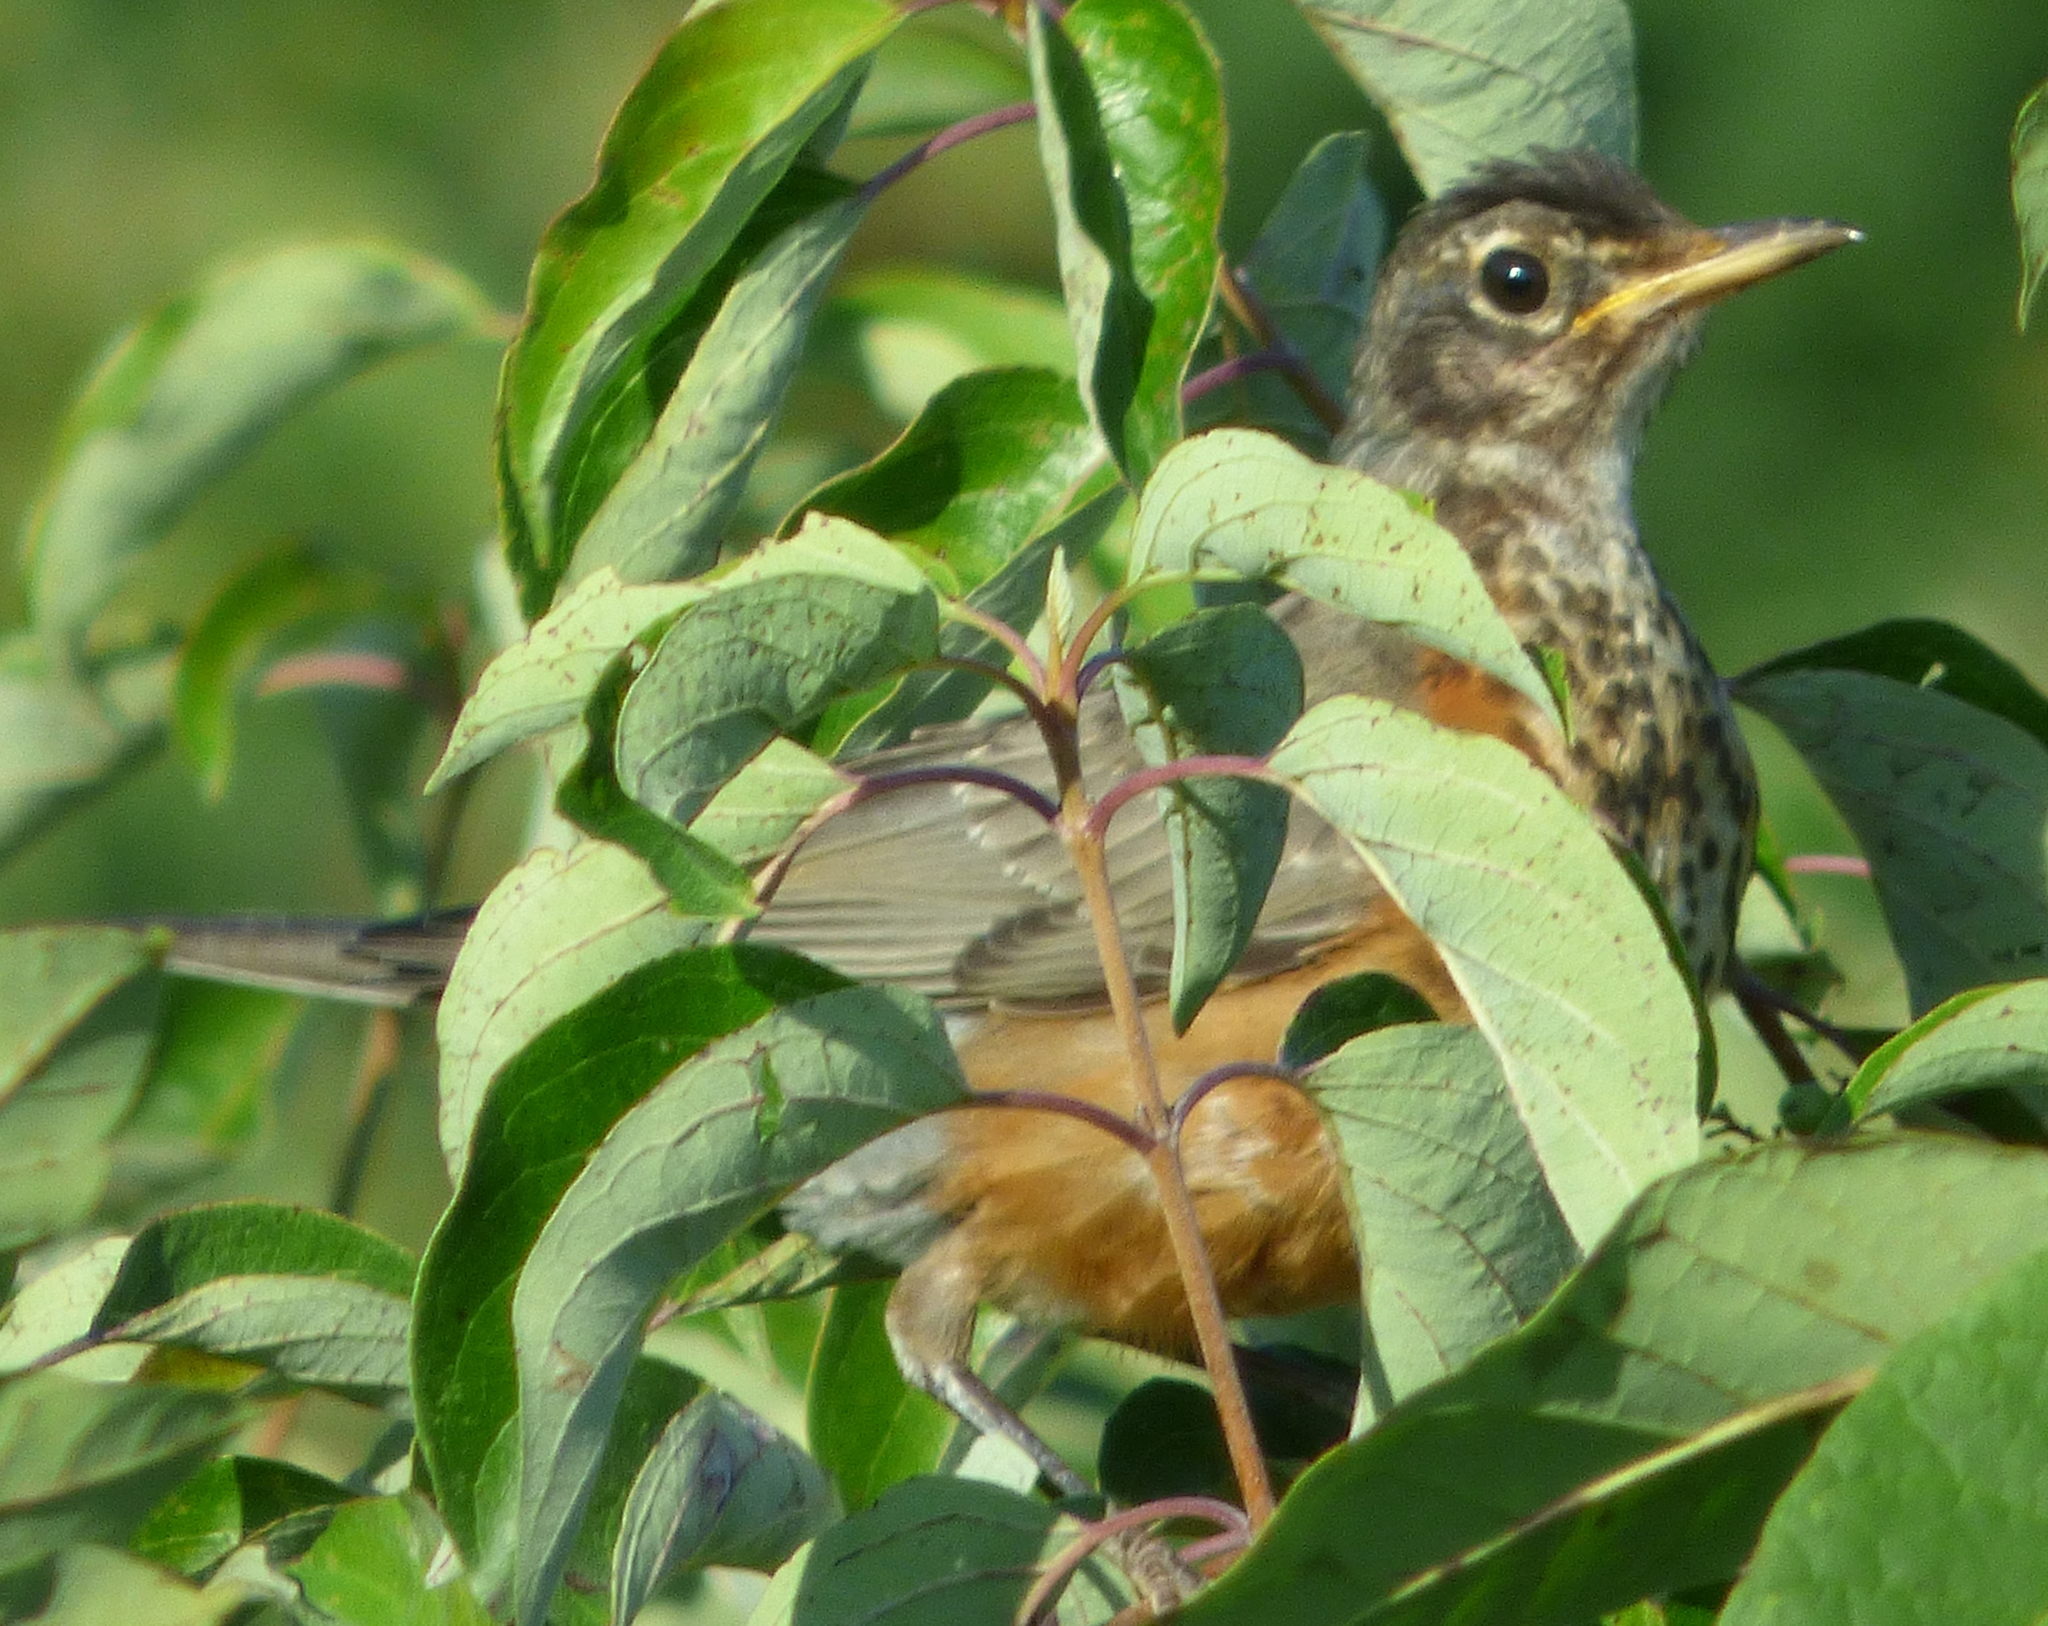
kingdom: Animalia
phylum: Chordata
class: Aves
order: Passeriformes
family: Turdidae
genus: Turdus
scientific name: Turdus migratorius
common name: American robin
